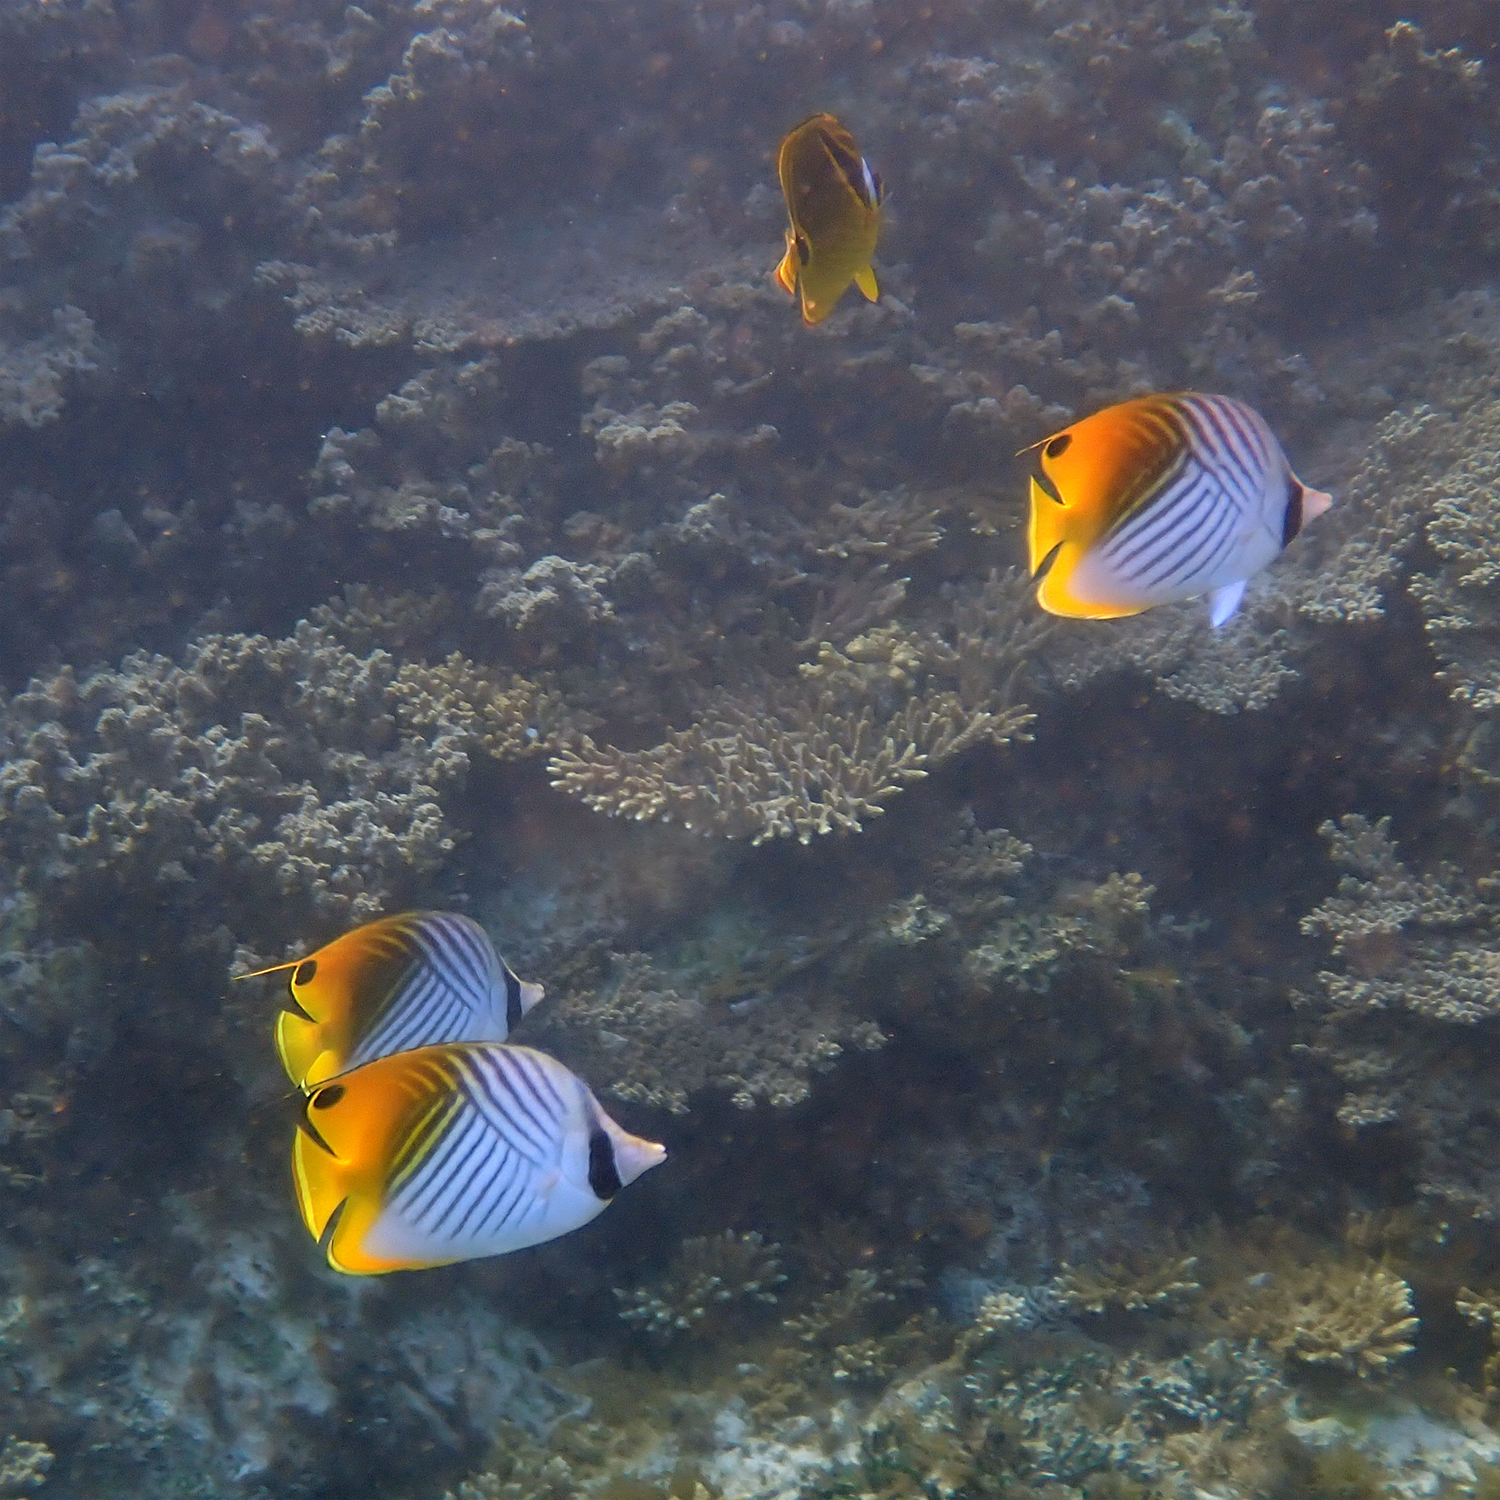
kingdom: Animalia
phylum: Chordata
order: Perciformes
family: Chaetodontidae
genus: Chaetodon
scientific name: Chaetodon auriga
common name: Threadfin butterflyfish
